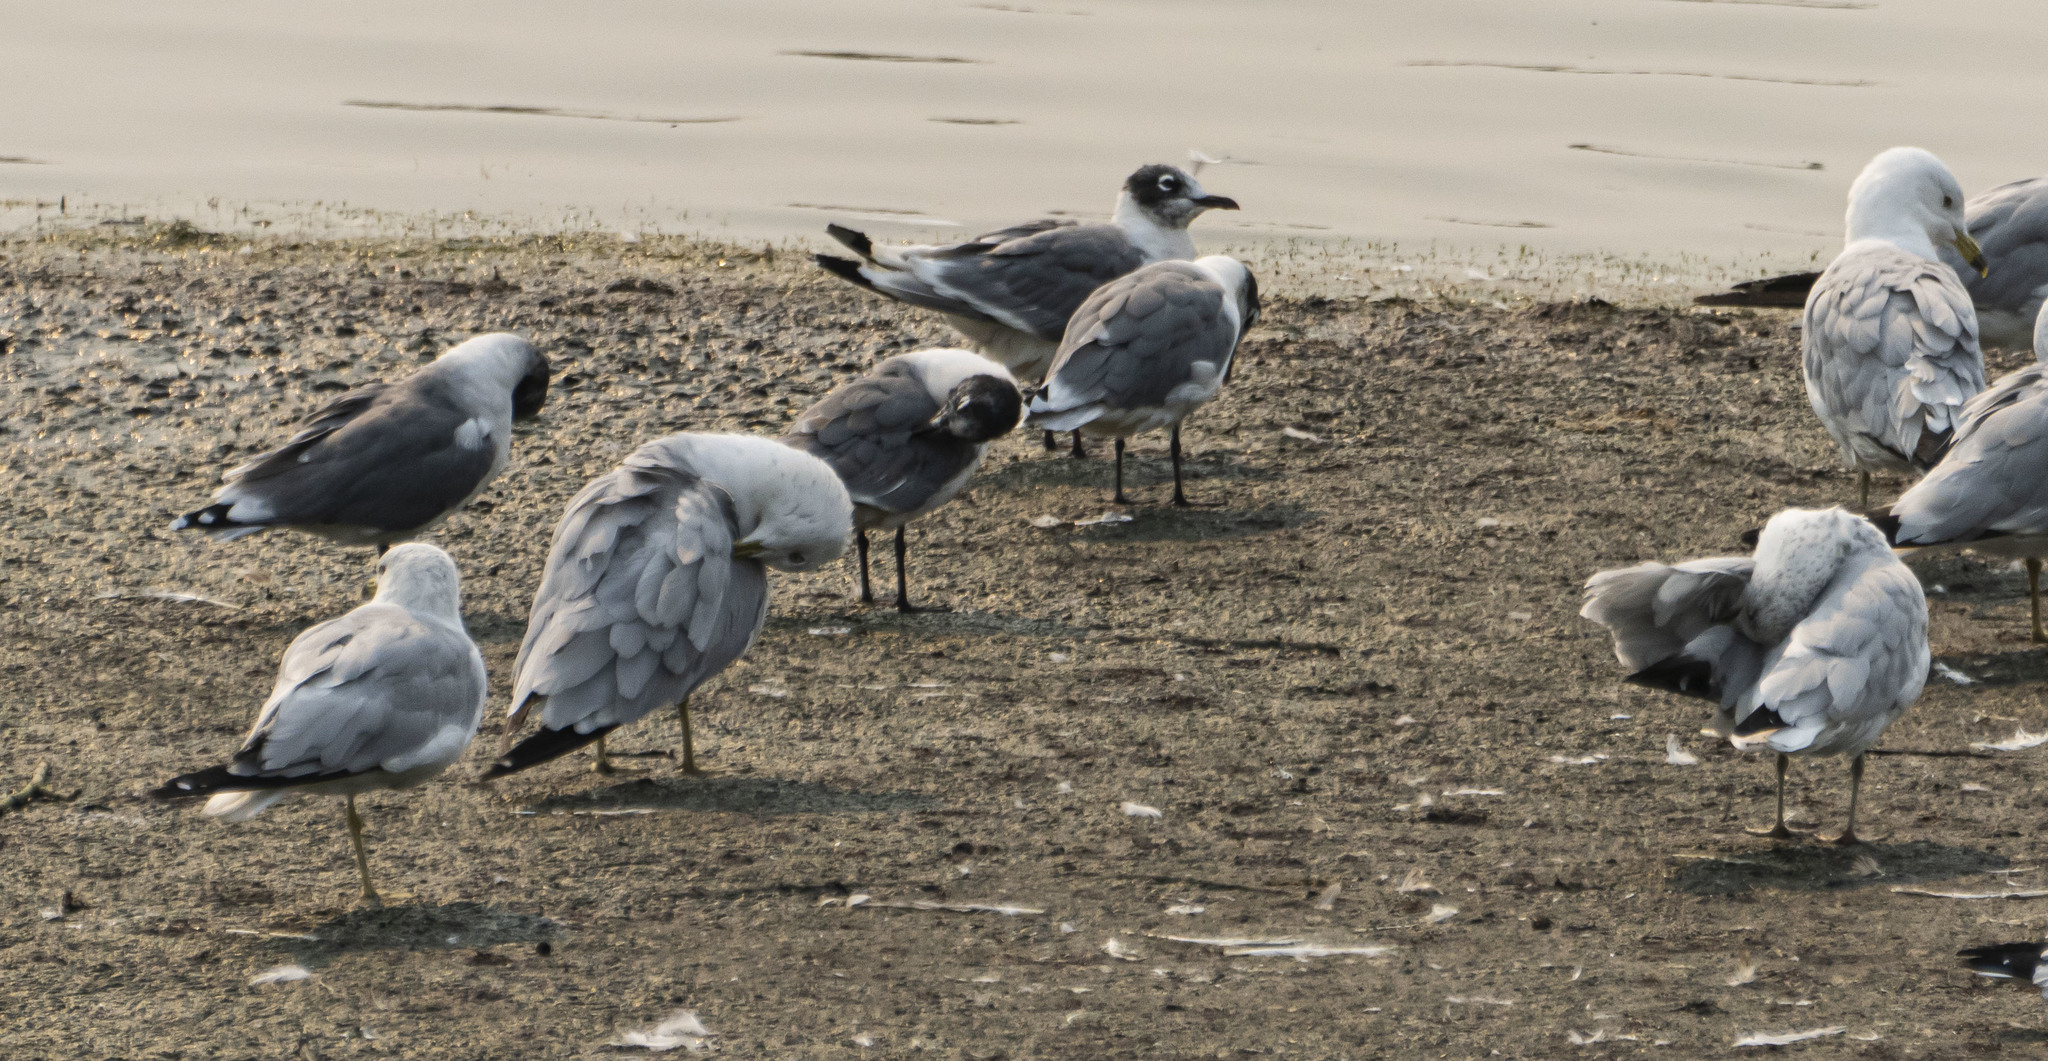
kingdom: Animalia
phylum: Chordata
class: Aves
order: Charadriiformes
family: Laridae
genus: Leucophaeus
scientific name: Leucophaeus pipixcan
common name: Franklin's gull
